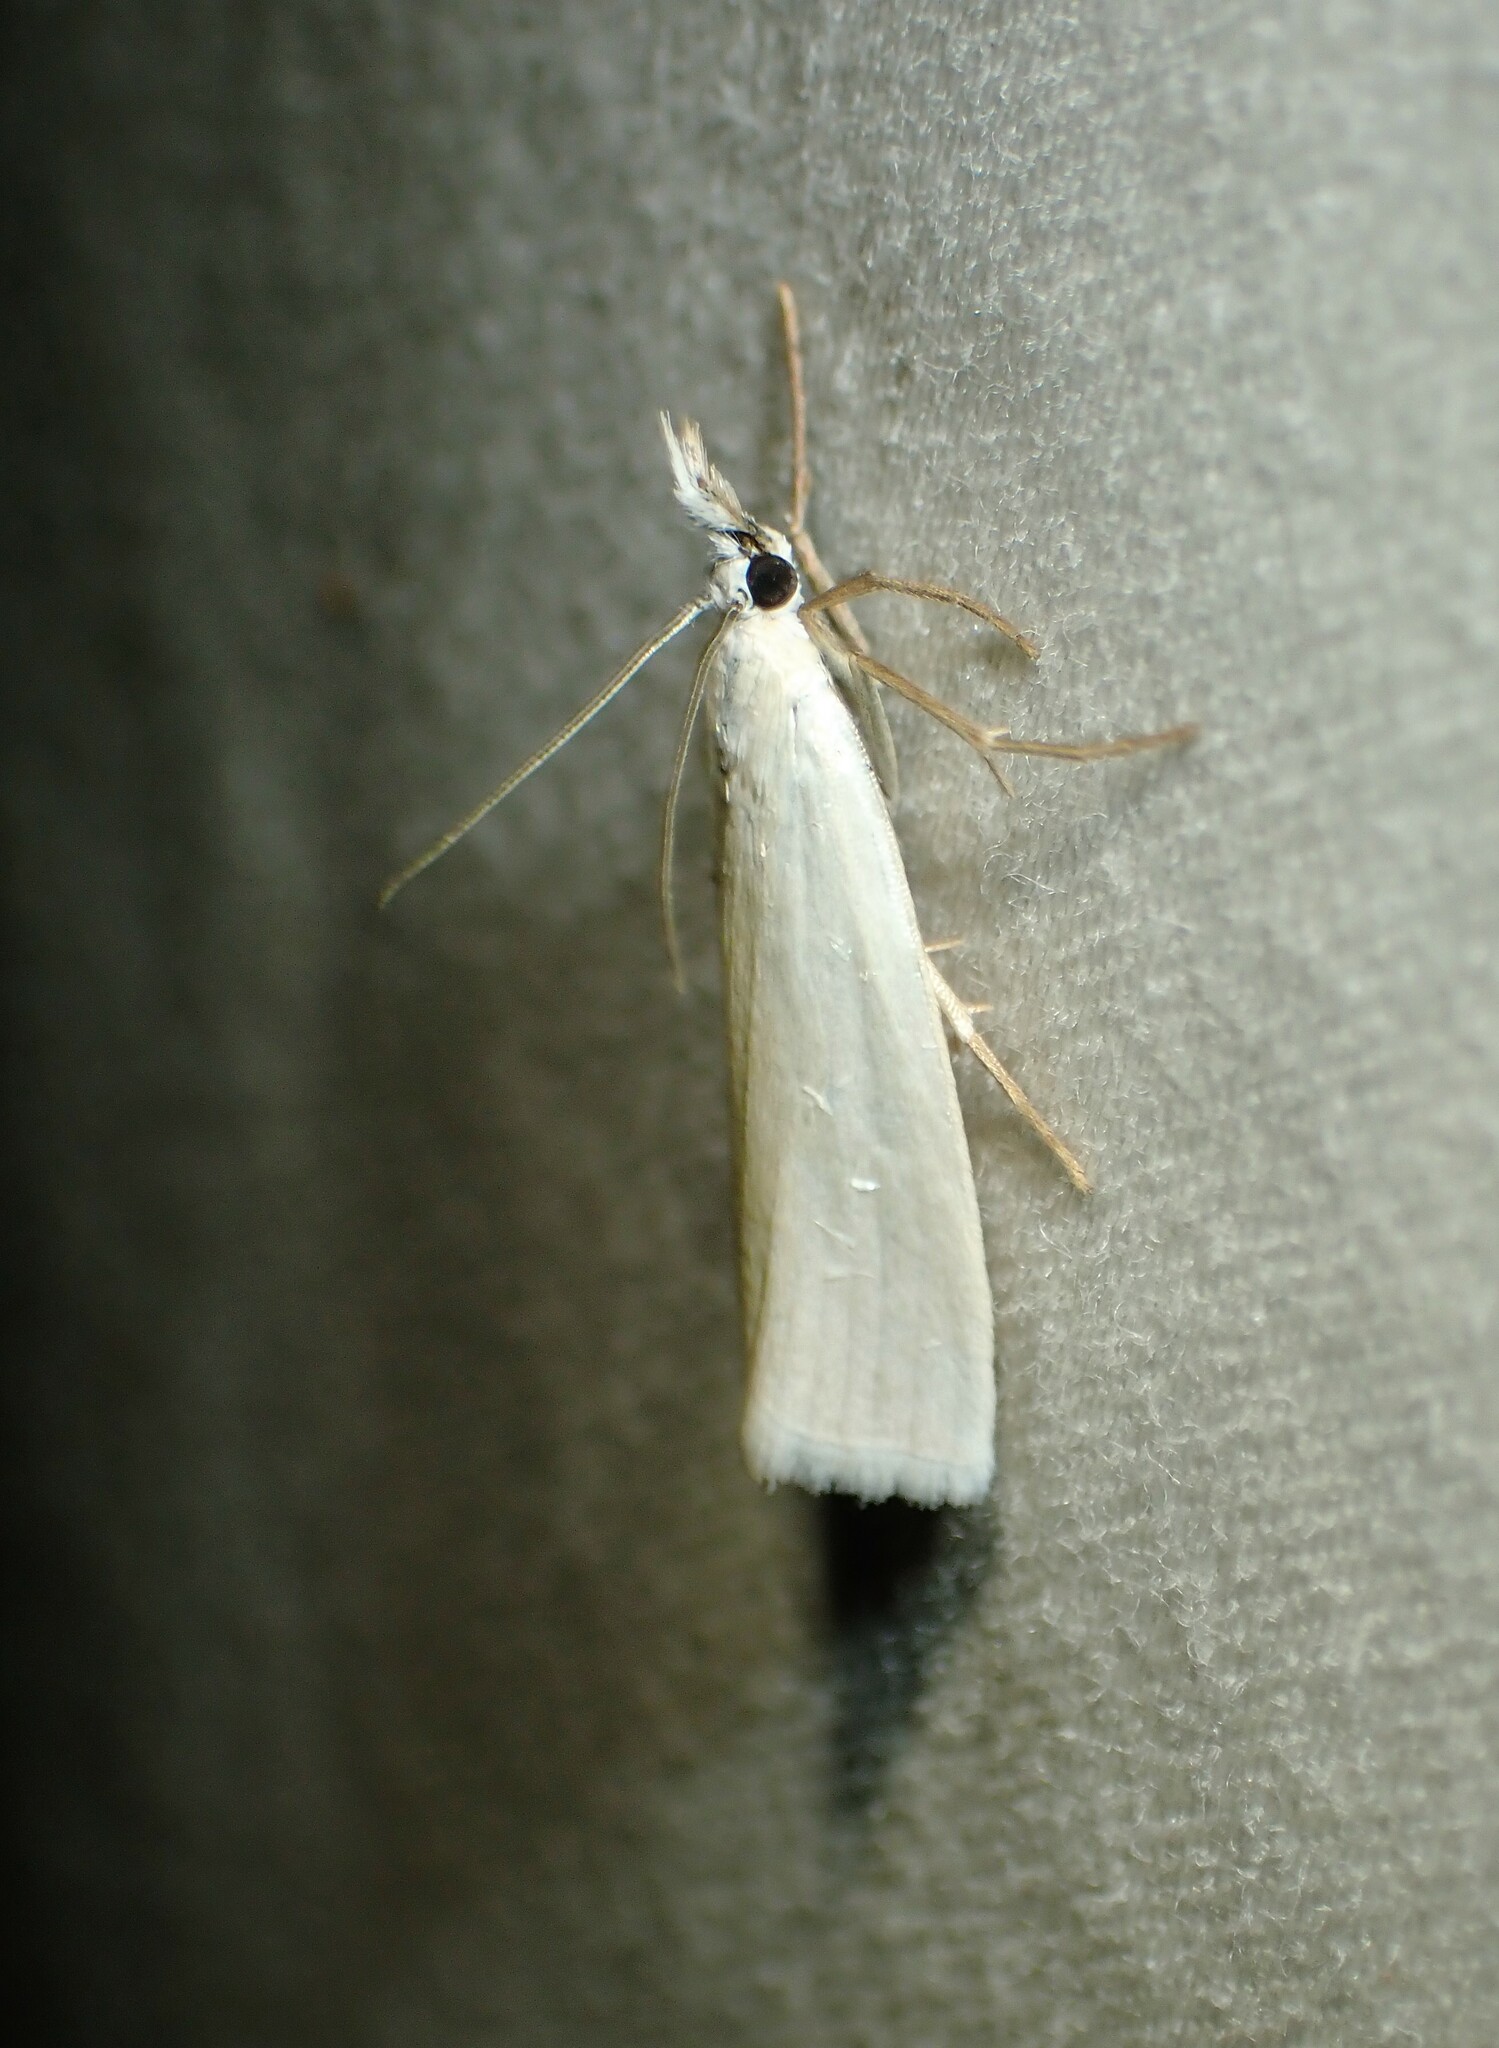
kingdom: Animalia
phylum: Arthropoda
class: Insecta
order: Lepidoptera
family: Crambidae
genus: Crambus
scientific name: Crambus perlellus
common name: Yellow satin veneer
